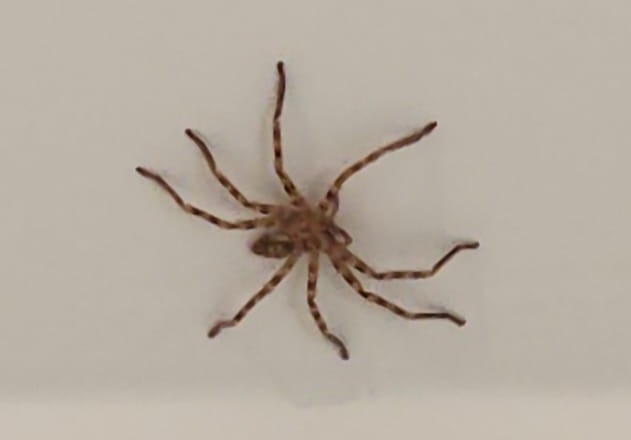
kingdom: Animalia
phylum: Arthropoda
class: Arachnida
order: Araneae
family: Sparassidae
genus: Eusparassus
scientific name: Eusparassus walckenaeri
